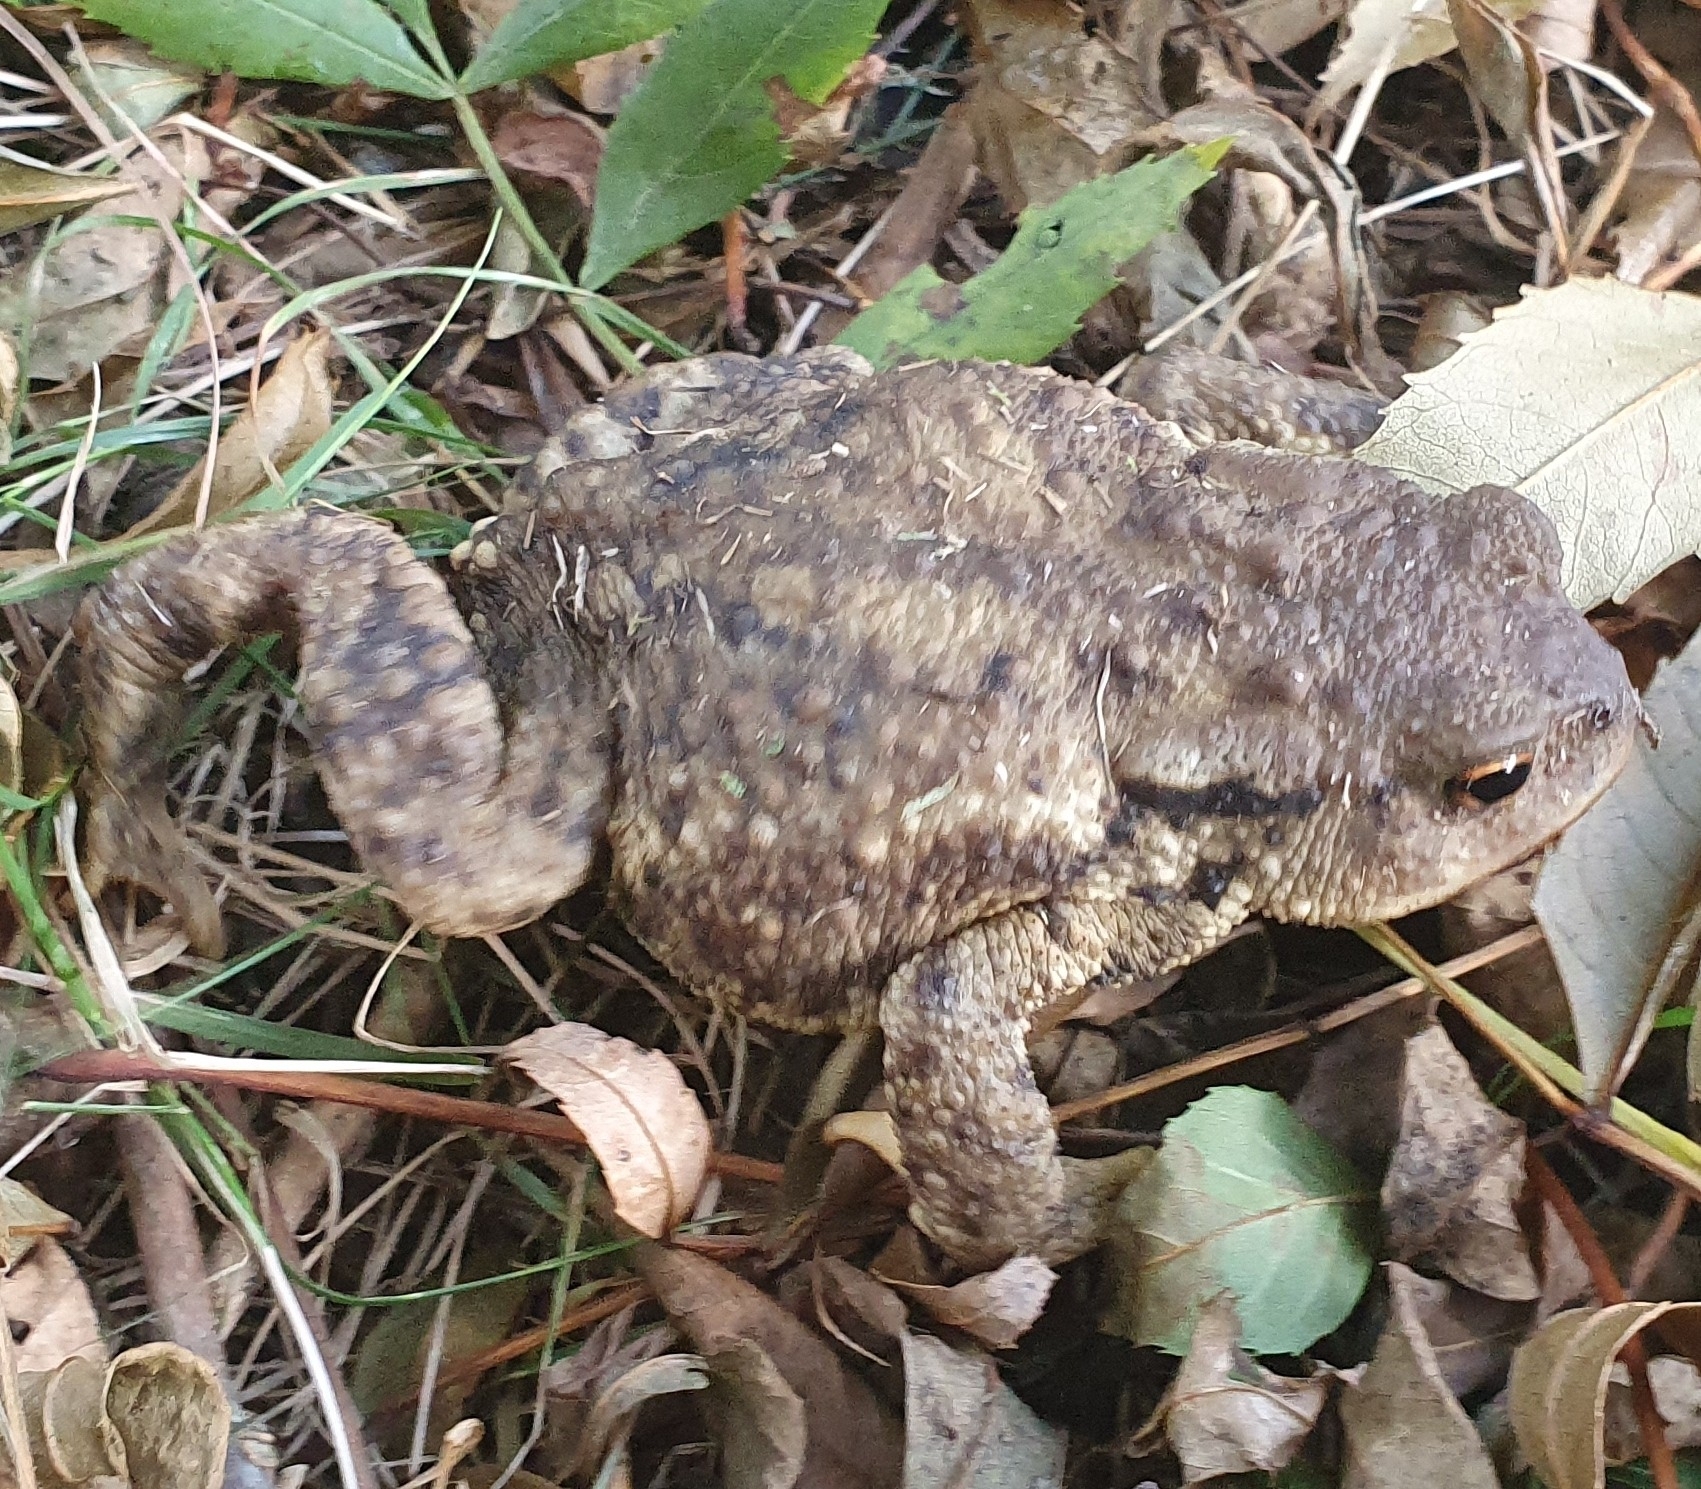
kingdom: Animalia
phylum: Chordata
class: Amphibia
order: Anura
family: Bufonidae
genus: Bufo
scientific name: Bufo spinosus
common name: Western common toad
